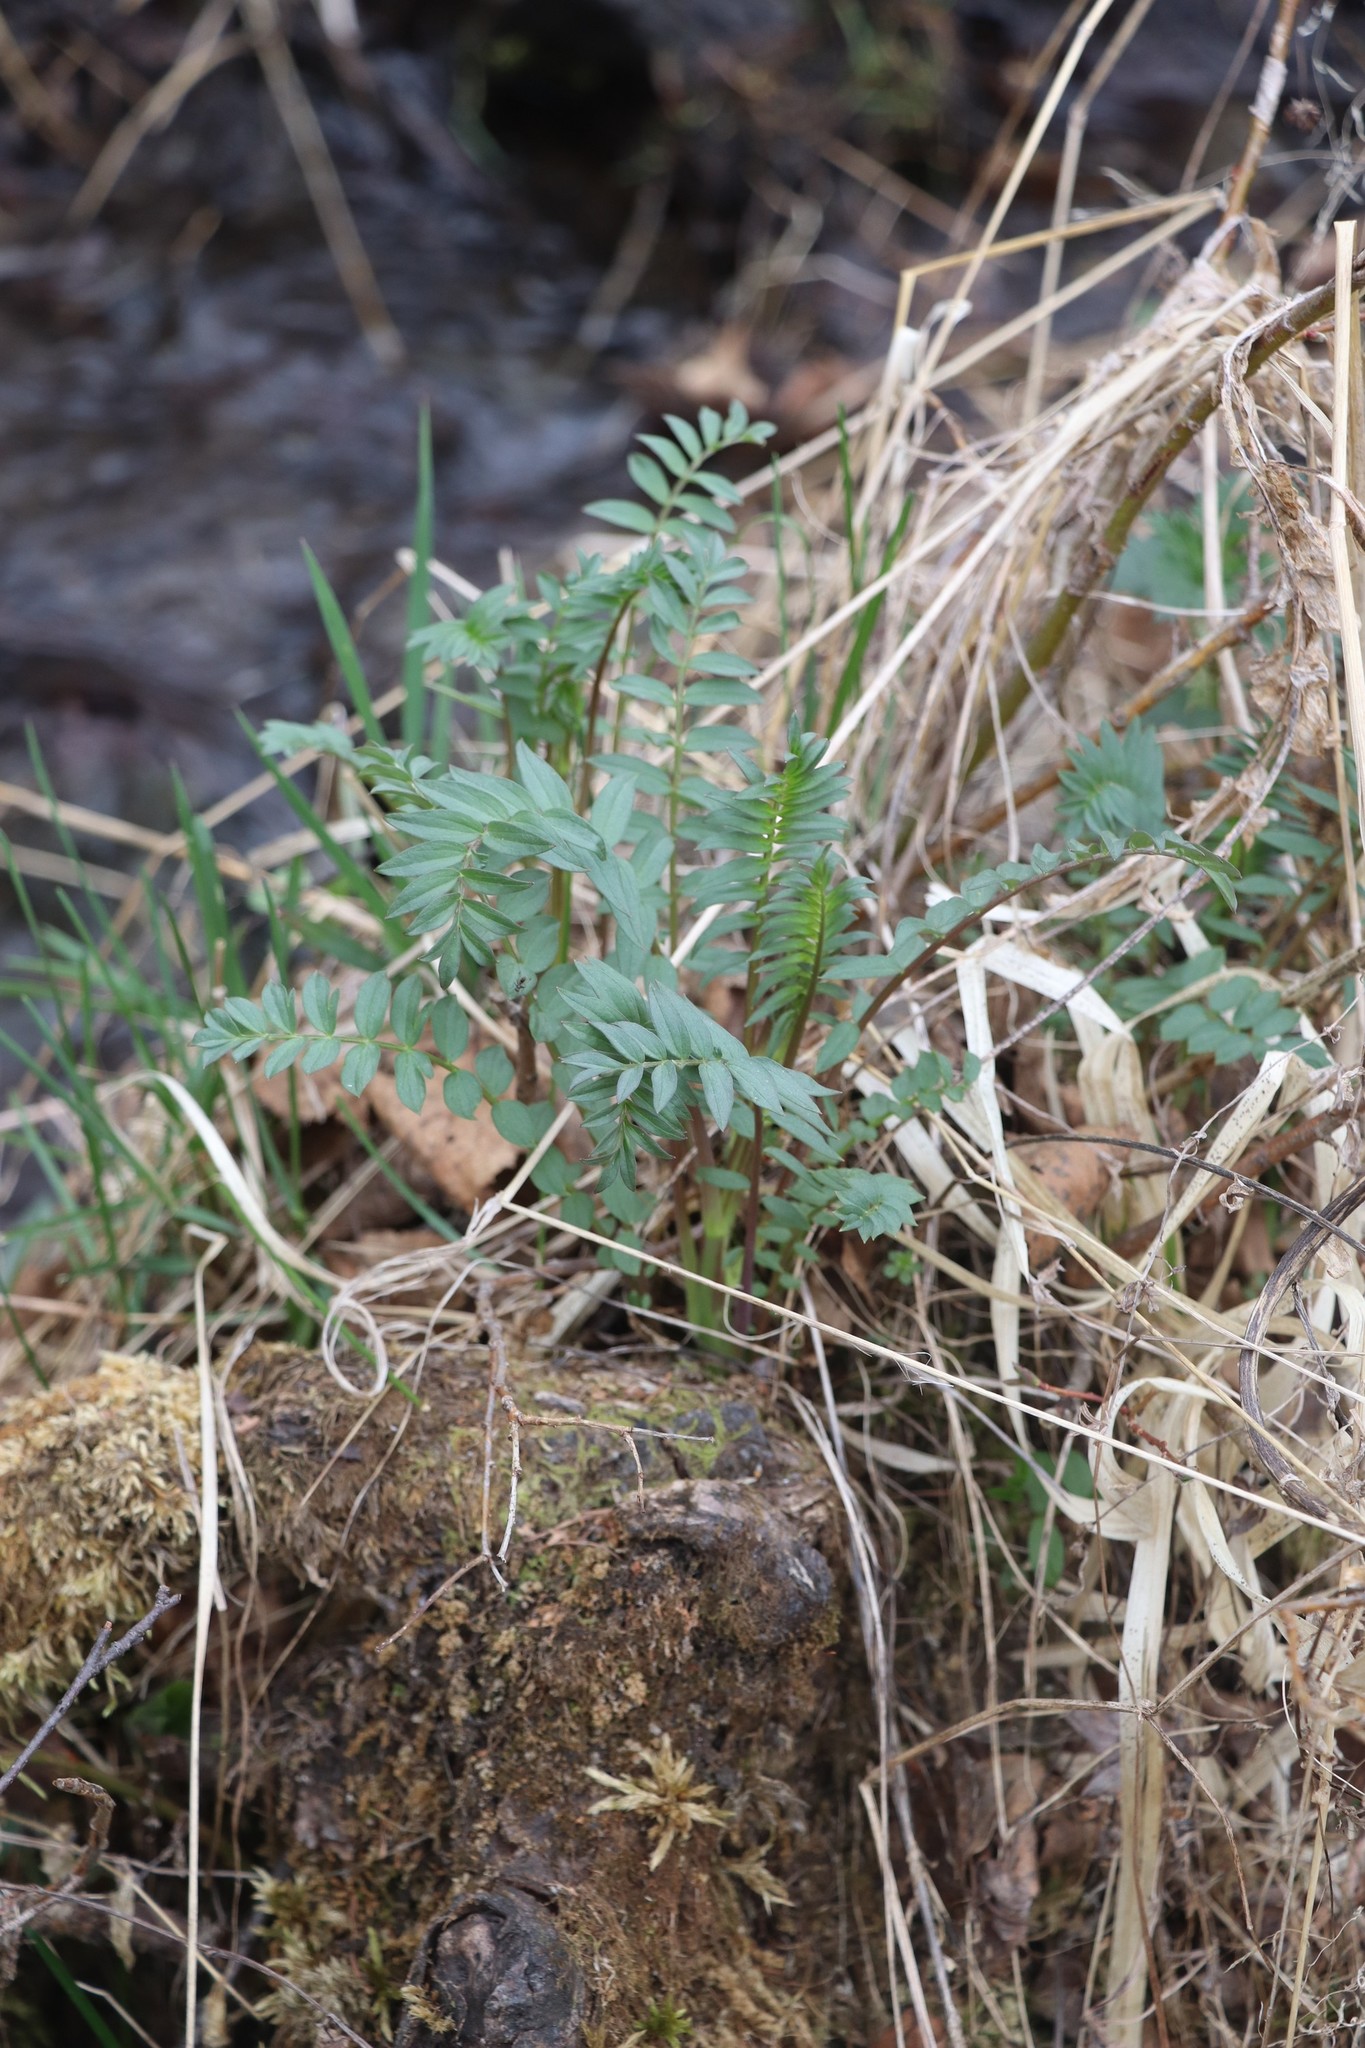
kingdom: Plantae
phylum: Tracheophyta
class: Magnoliopsida
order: Ericales
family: Polemoniaceae
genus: Polemonium
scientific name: Polemonium caeruleum
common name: Jacob's-ladder
